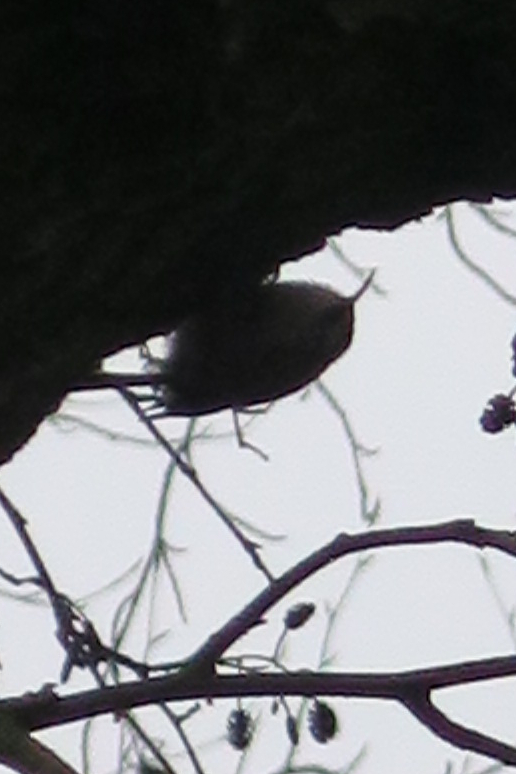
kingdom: Animalia
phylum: Chordata
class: Aves
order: Passeriformes
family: Certhiidae
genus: Certhia
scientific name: Certhia
